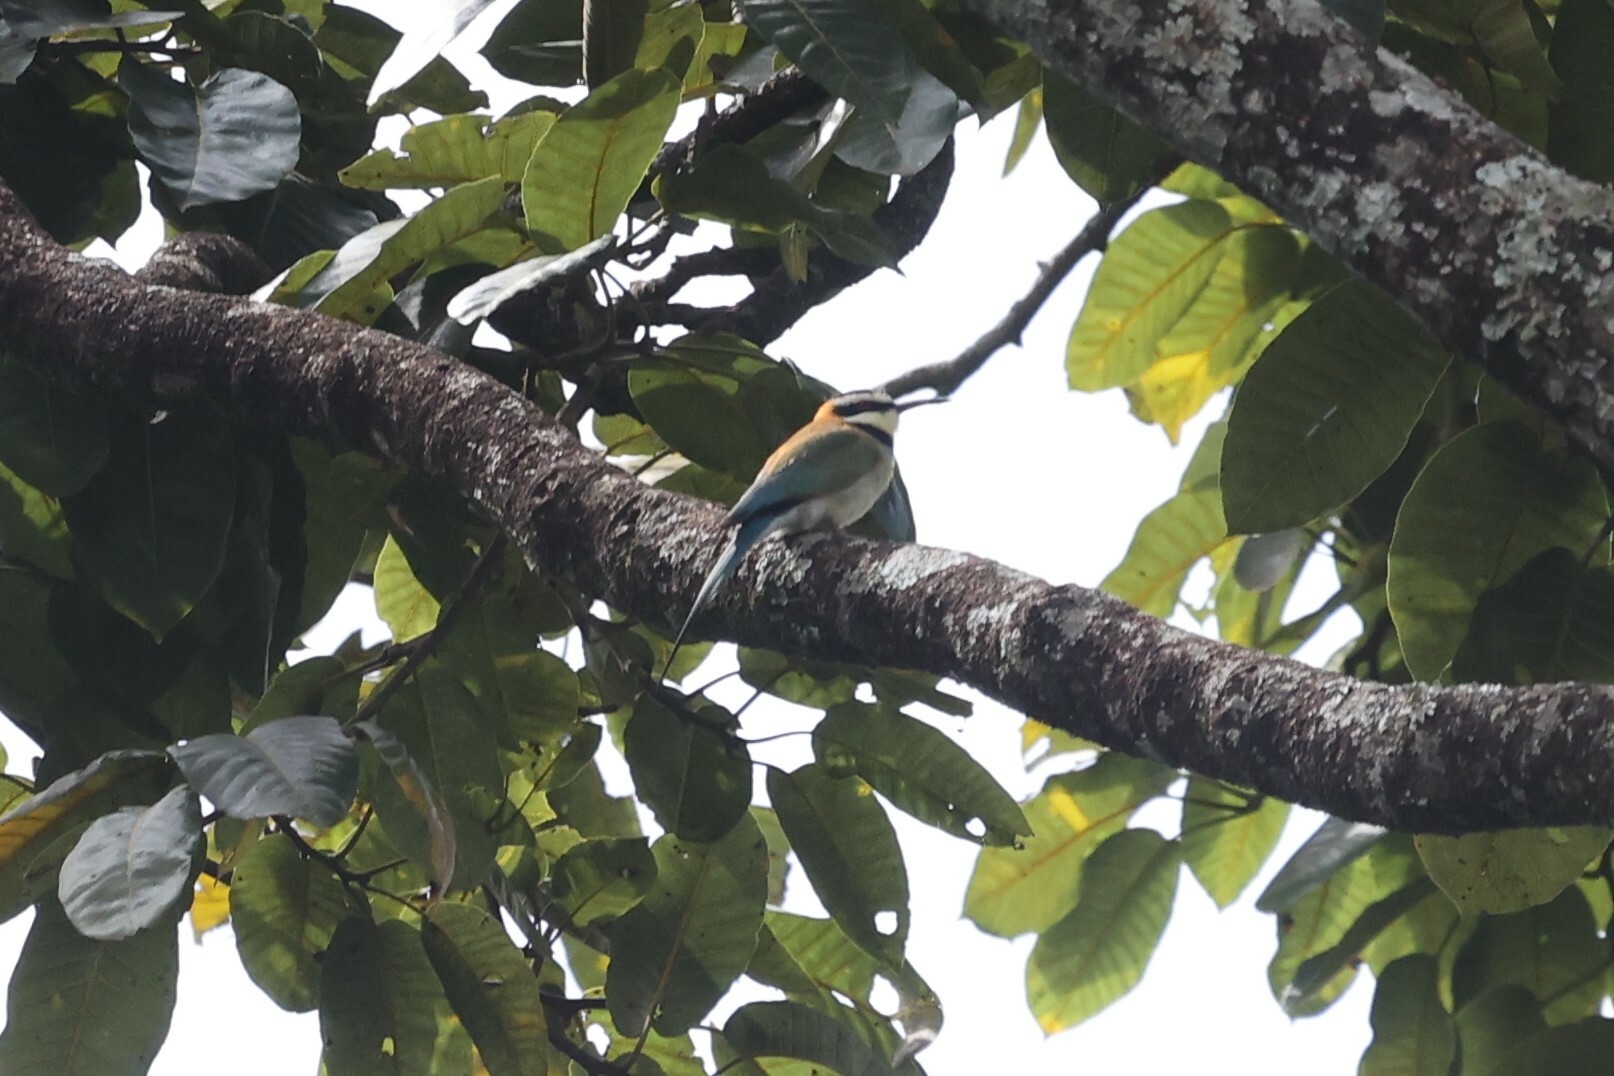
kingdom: Animalia
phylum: Chordata
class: Aves
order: Coraciiformes
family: Meropidae
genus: Merops
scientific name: Merops albicollis
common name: White-throated bee-eater
